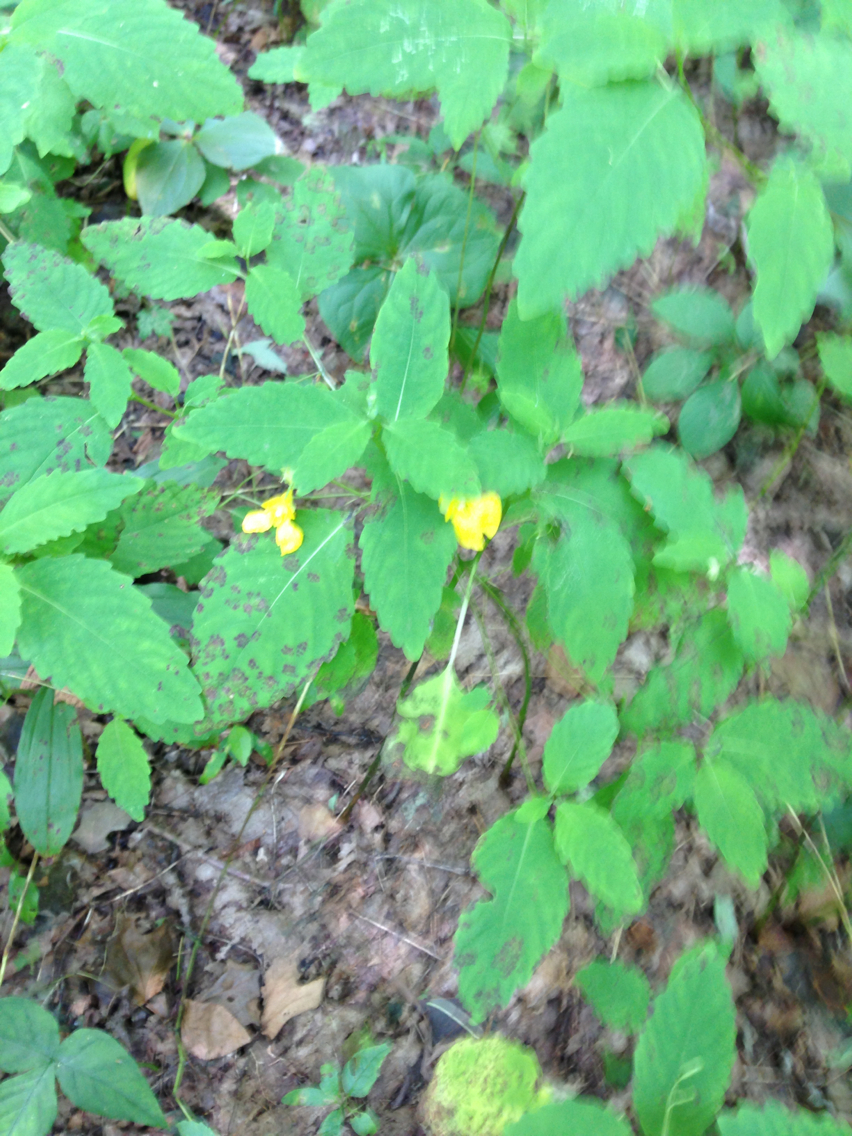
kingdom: Plantae
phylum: Tracheophyta
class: Magnoliopsida
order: Ericales
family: Balsaminaceae
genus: Impatiens
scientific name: Impatiens pallida
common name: Pale snapweed
